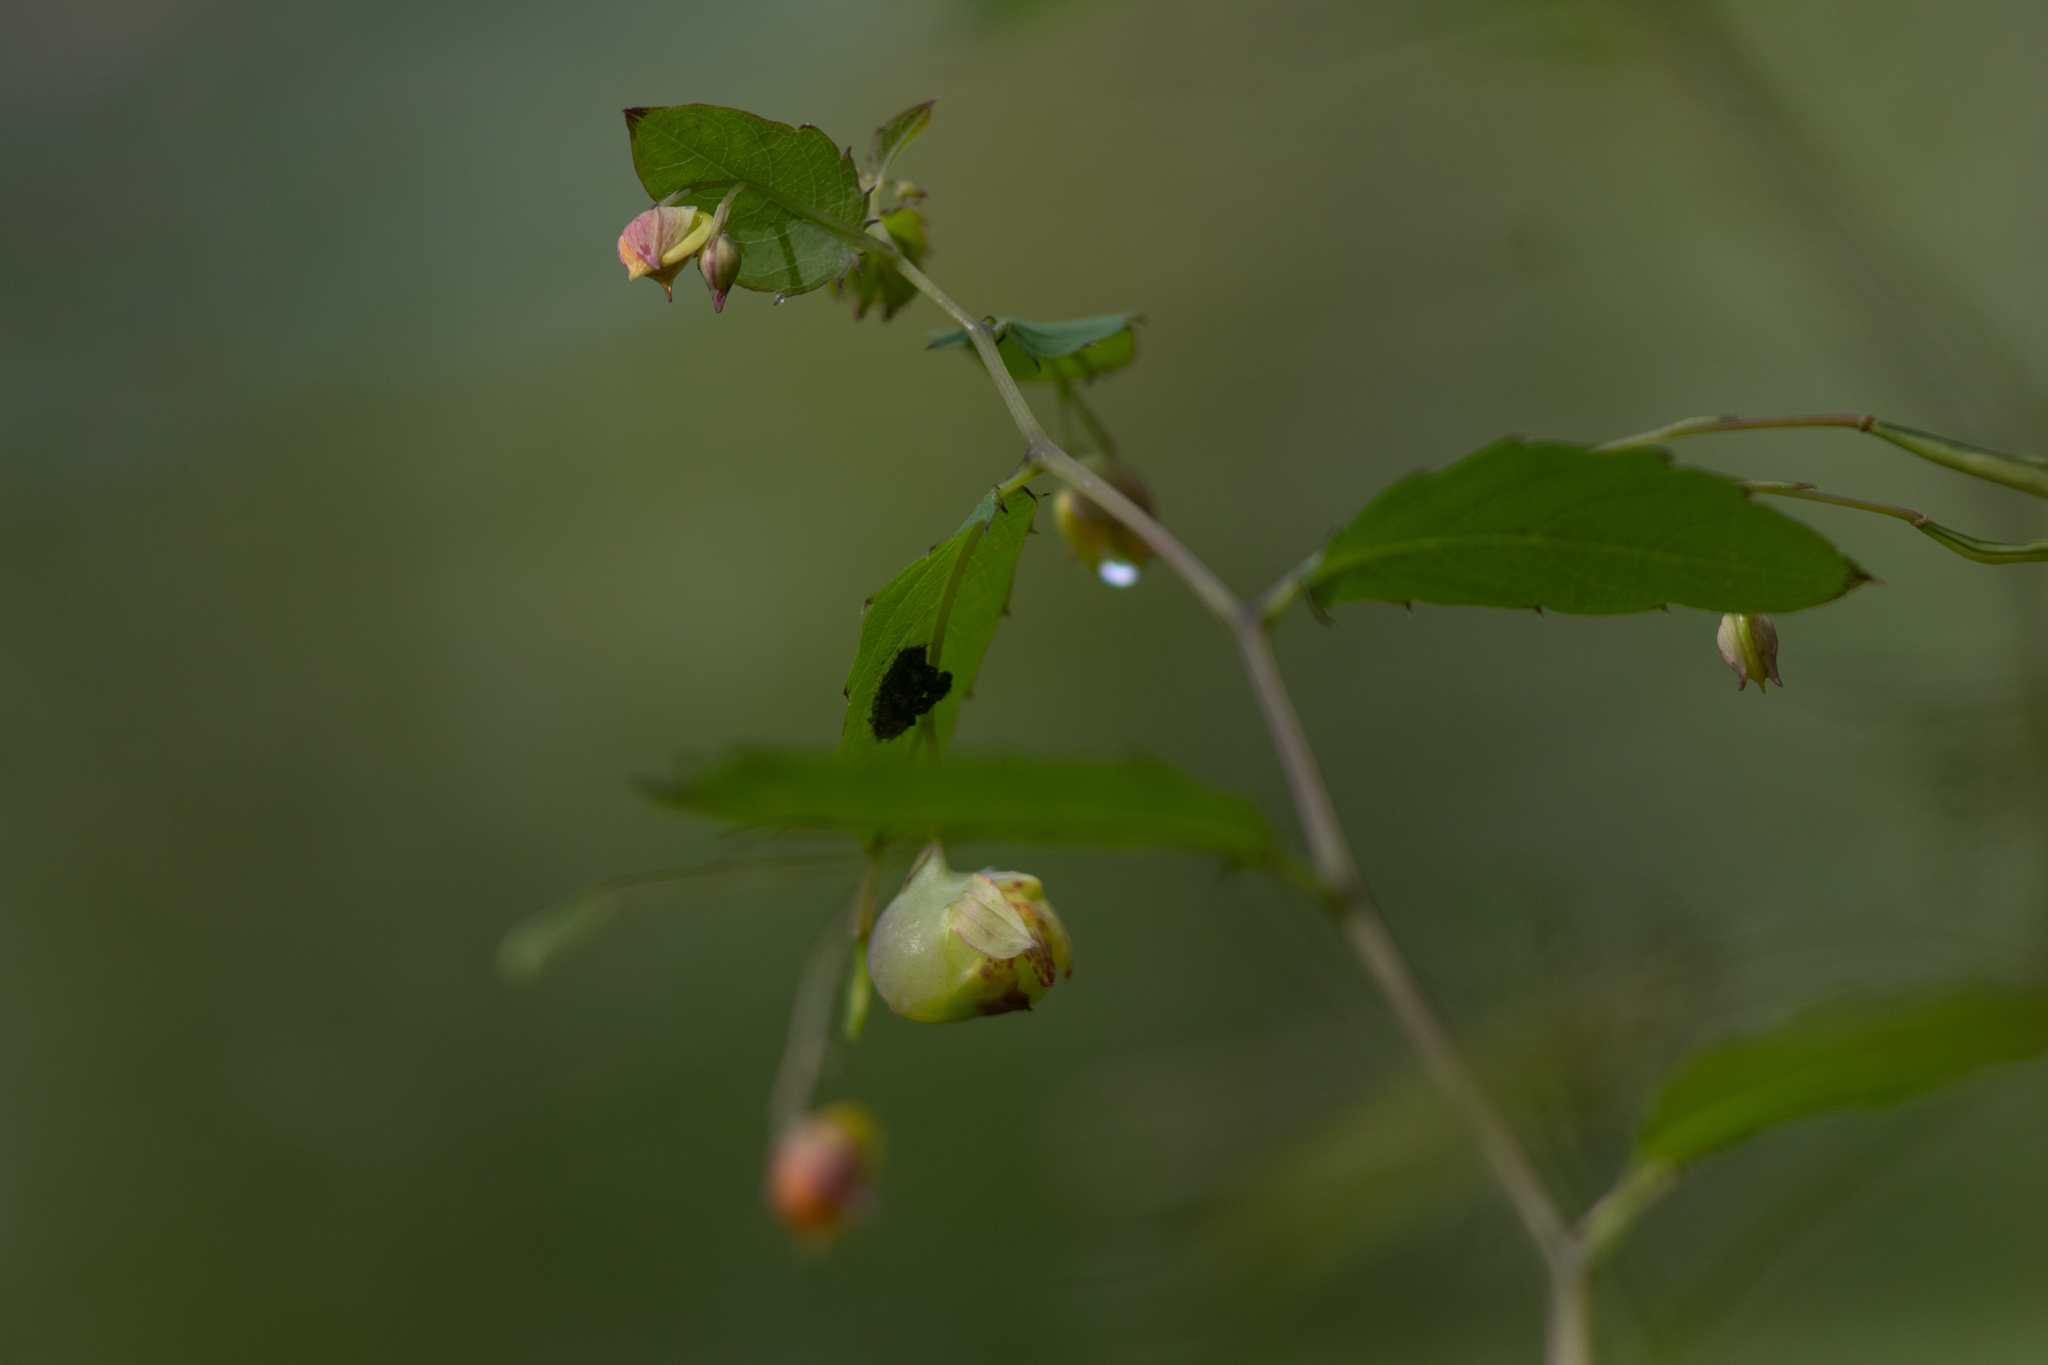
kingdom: Animalia
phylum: Arthropoda
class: Insecta
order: Diptera
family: Cecidomyiidae
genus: Schizomyia
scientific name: Schizomyia impatientis
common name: Jewelweed gall midge
